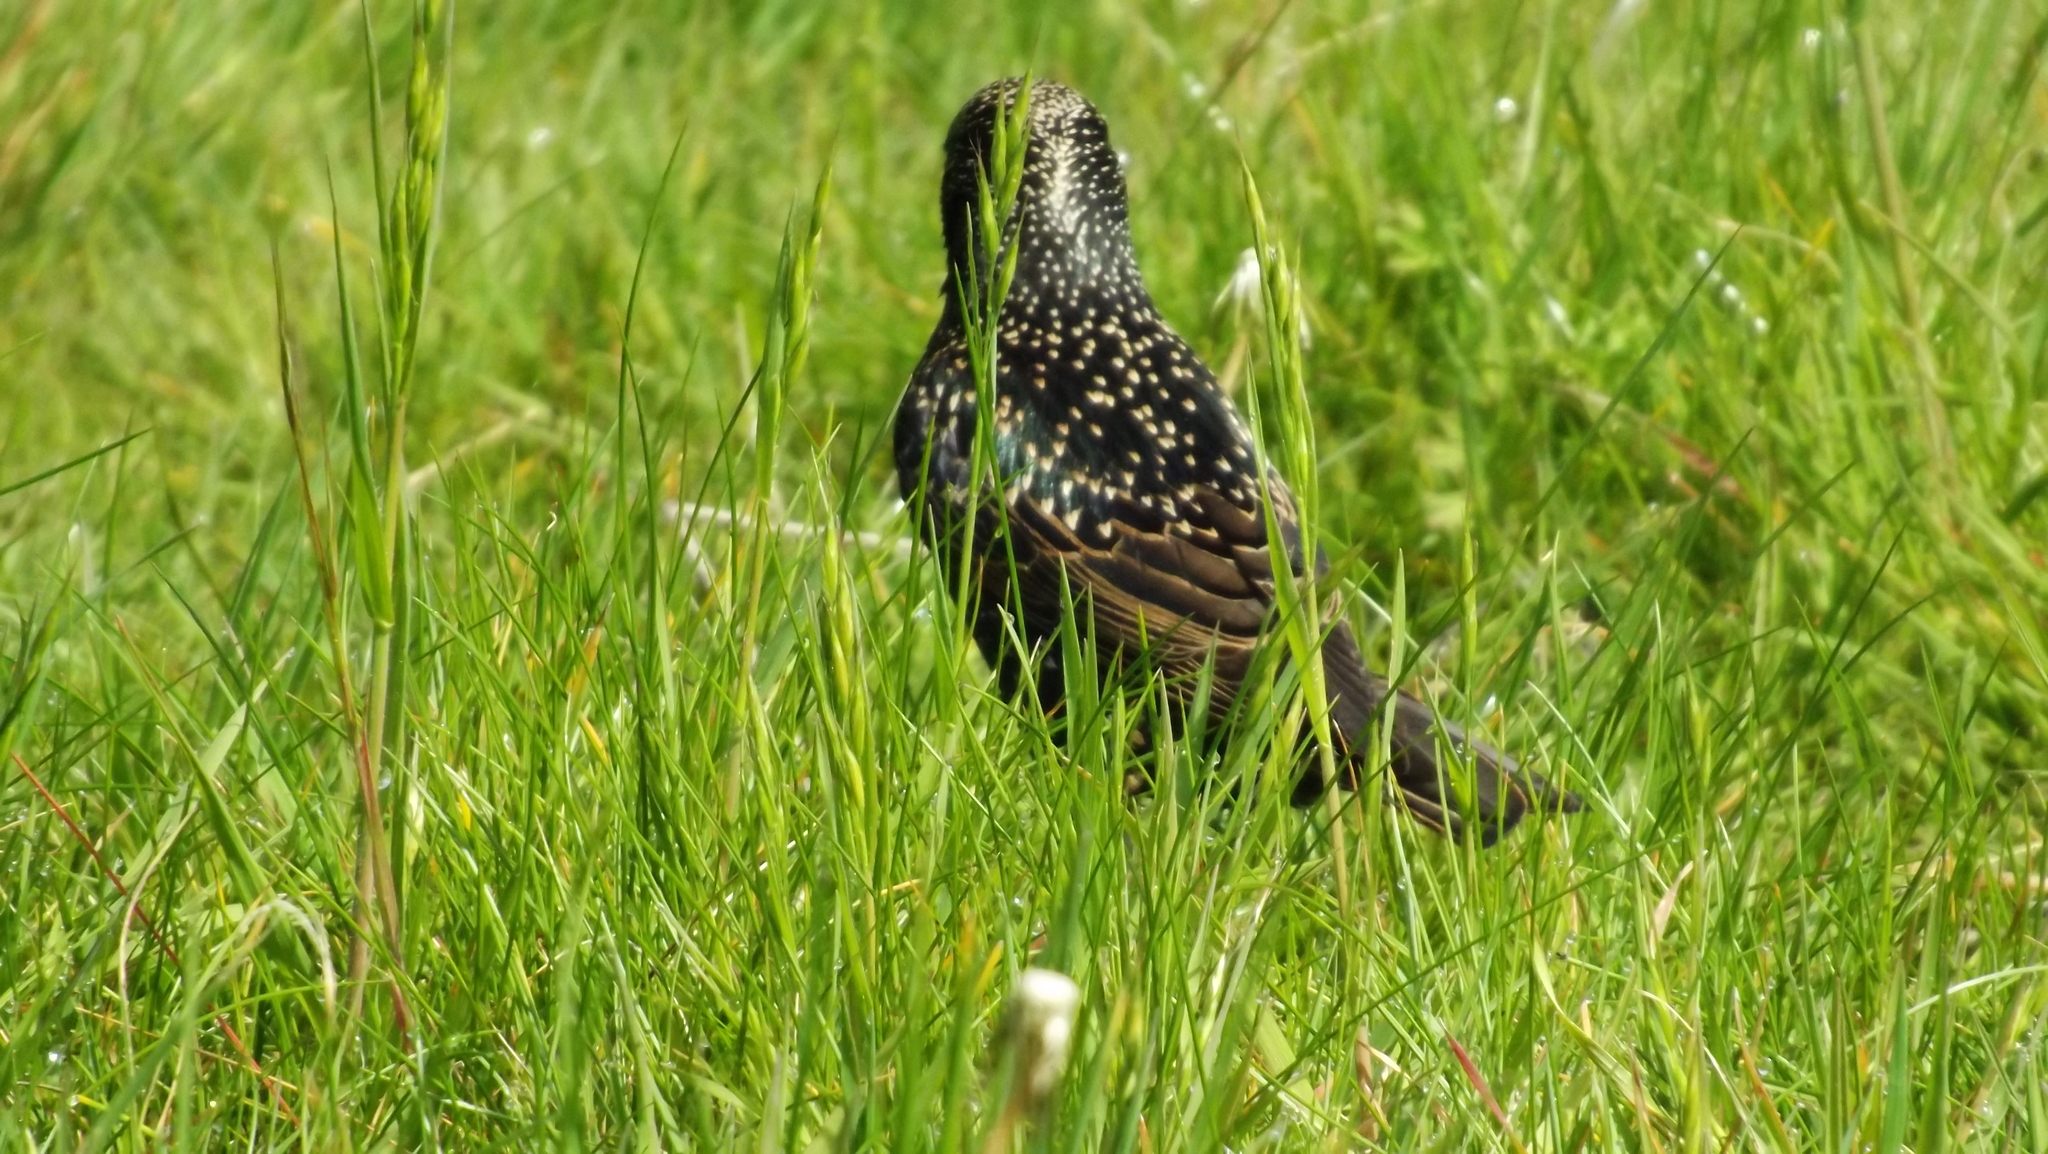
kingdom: Animalia
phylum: Chordata
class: Aves
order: Passeriformes
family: Sturnidae
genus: Sturnus
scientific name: Sturnus vulgaris
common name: Common starling
